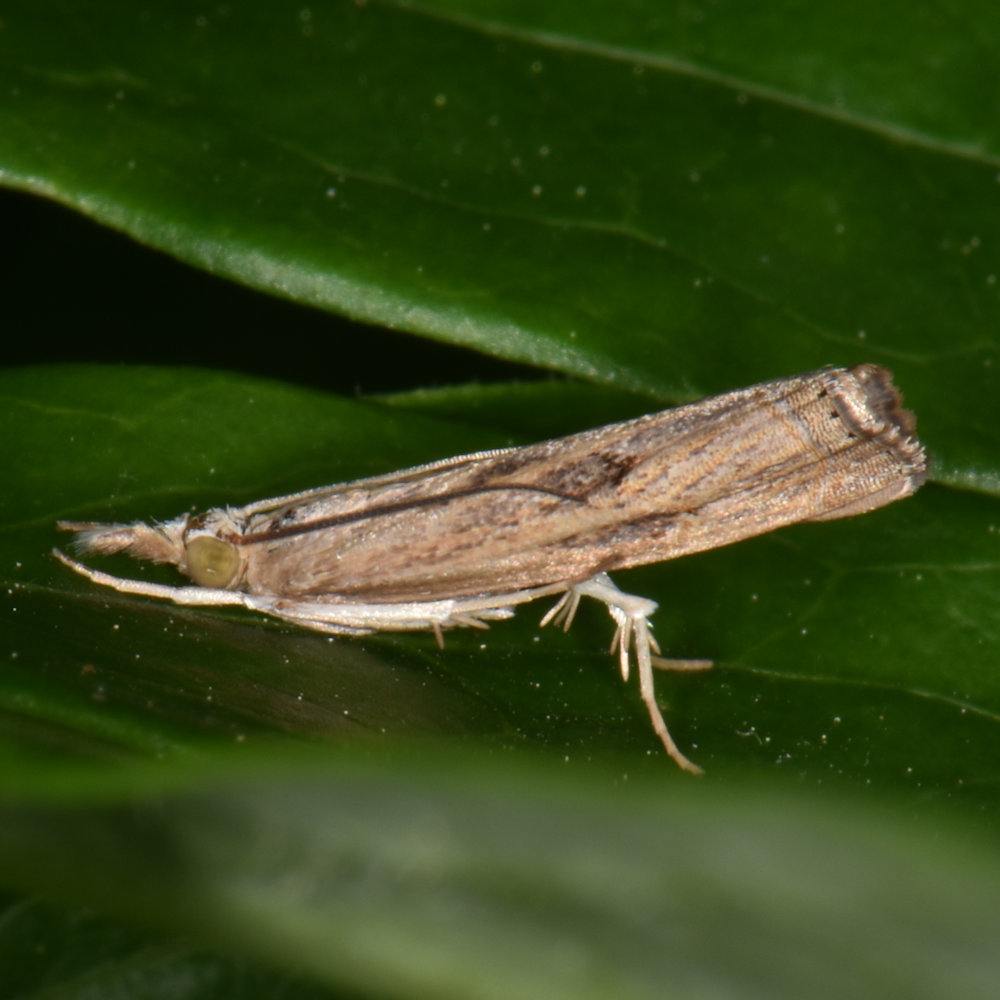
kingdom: Animalia
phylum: Arthropoda
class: Insecta
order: Lepidoptera
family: Crambidae
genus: Parapediasia
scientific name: Parapediasia teterellus
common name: Bluegrass webworm moth
